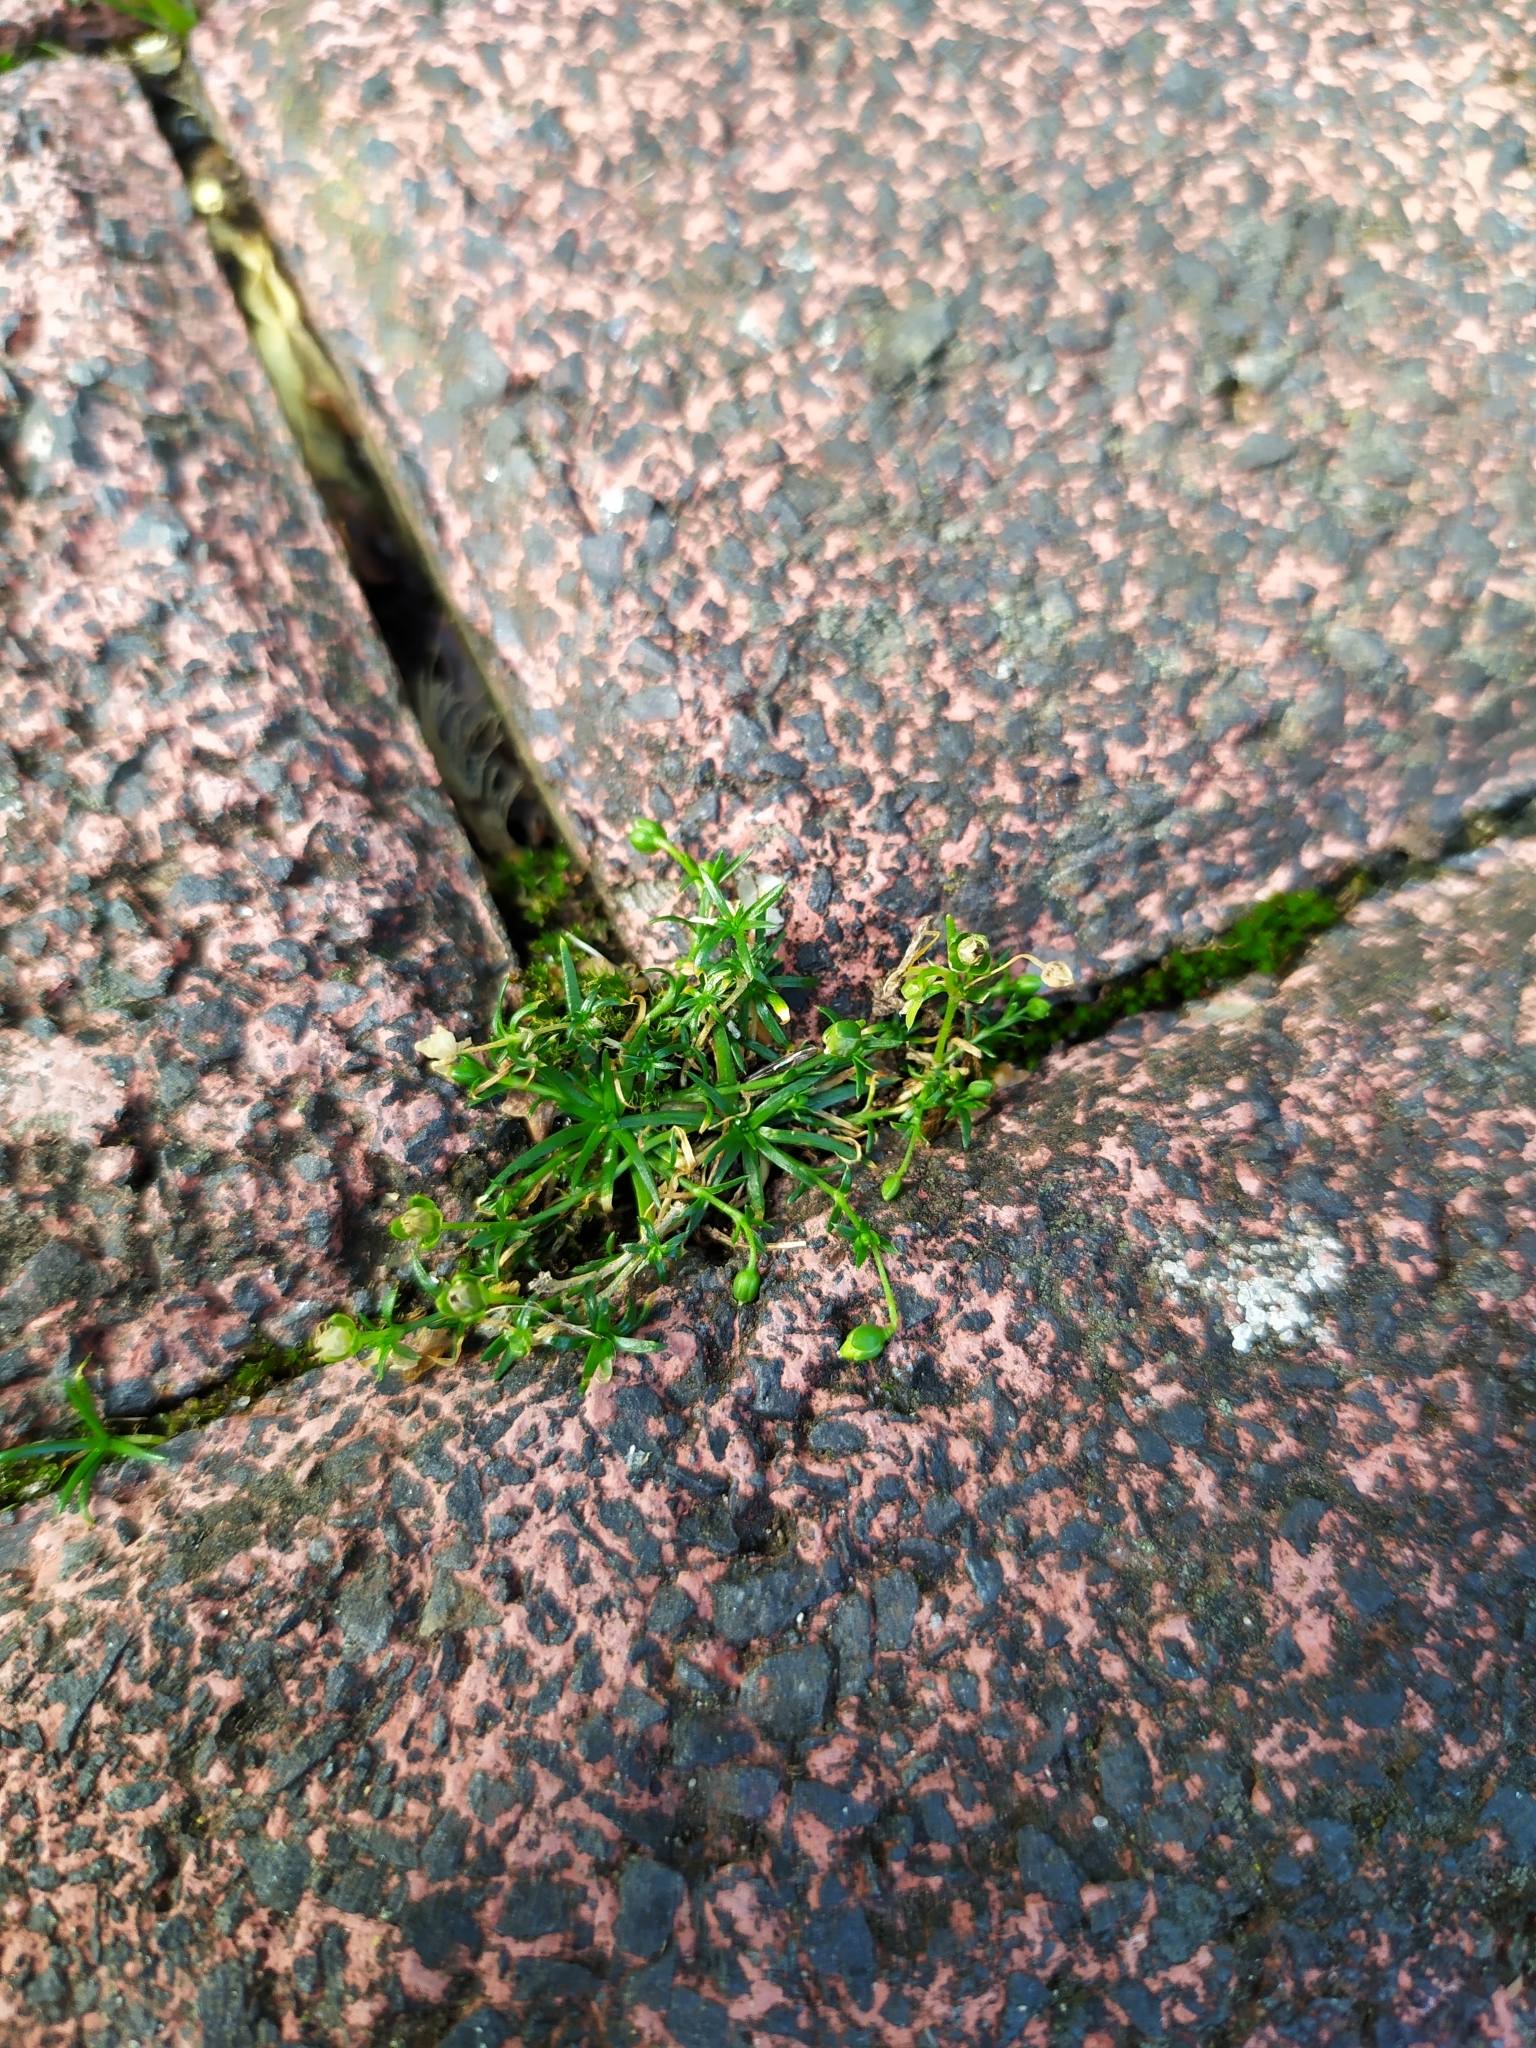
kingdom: Plantae
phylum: Tracheophyta
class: Magnoliopsida
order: Caryophyllales
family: Caryophyllaceae
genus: Sagina
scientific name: Sagina procumbens
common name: Procumbent pearlwort
